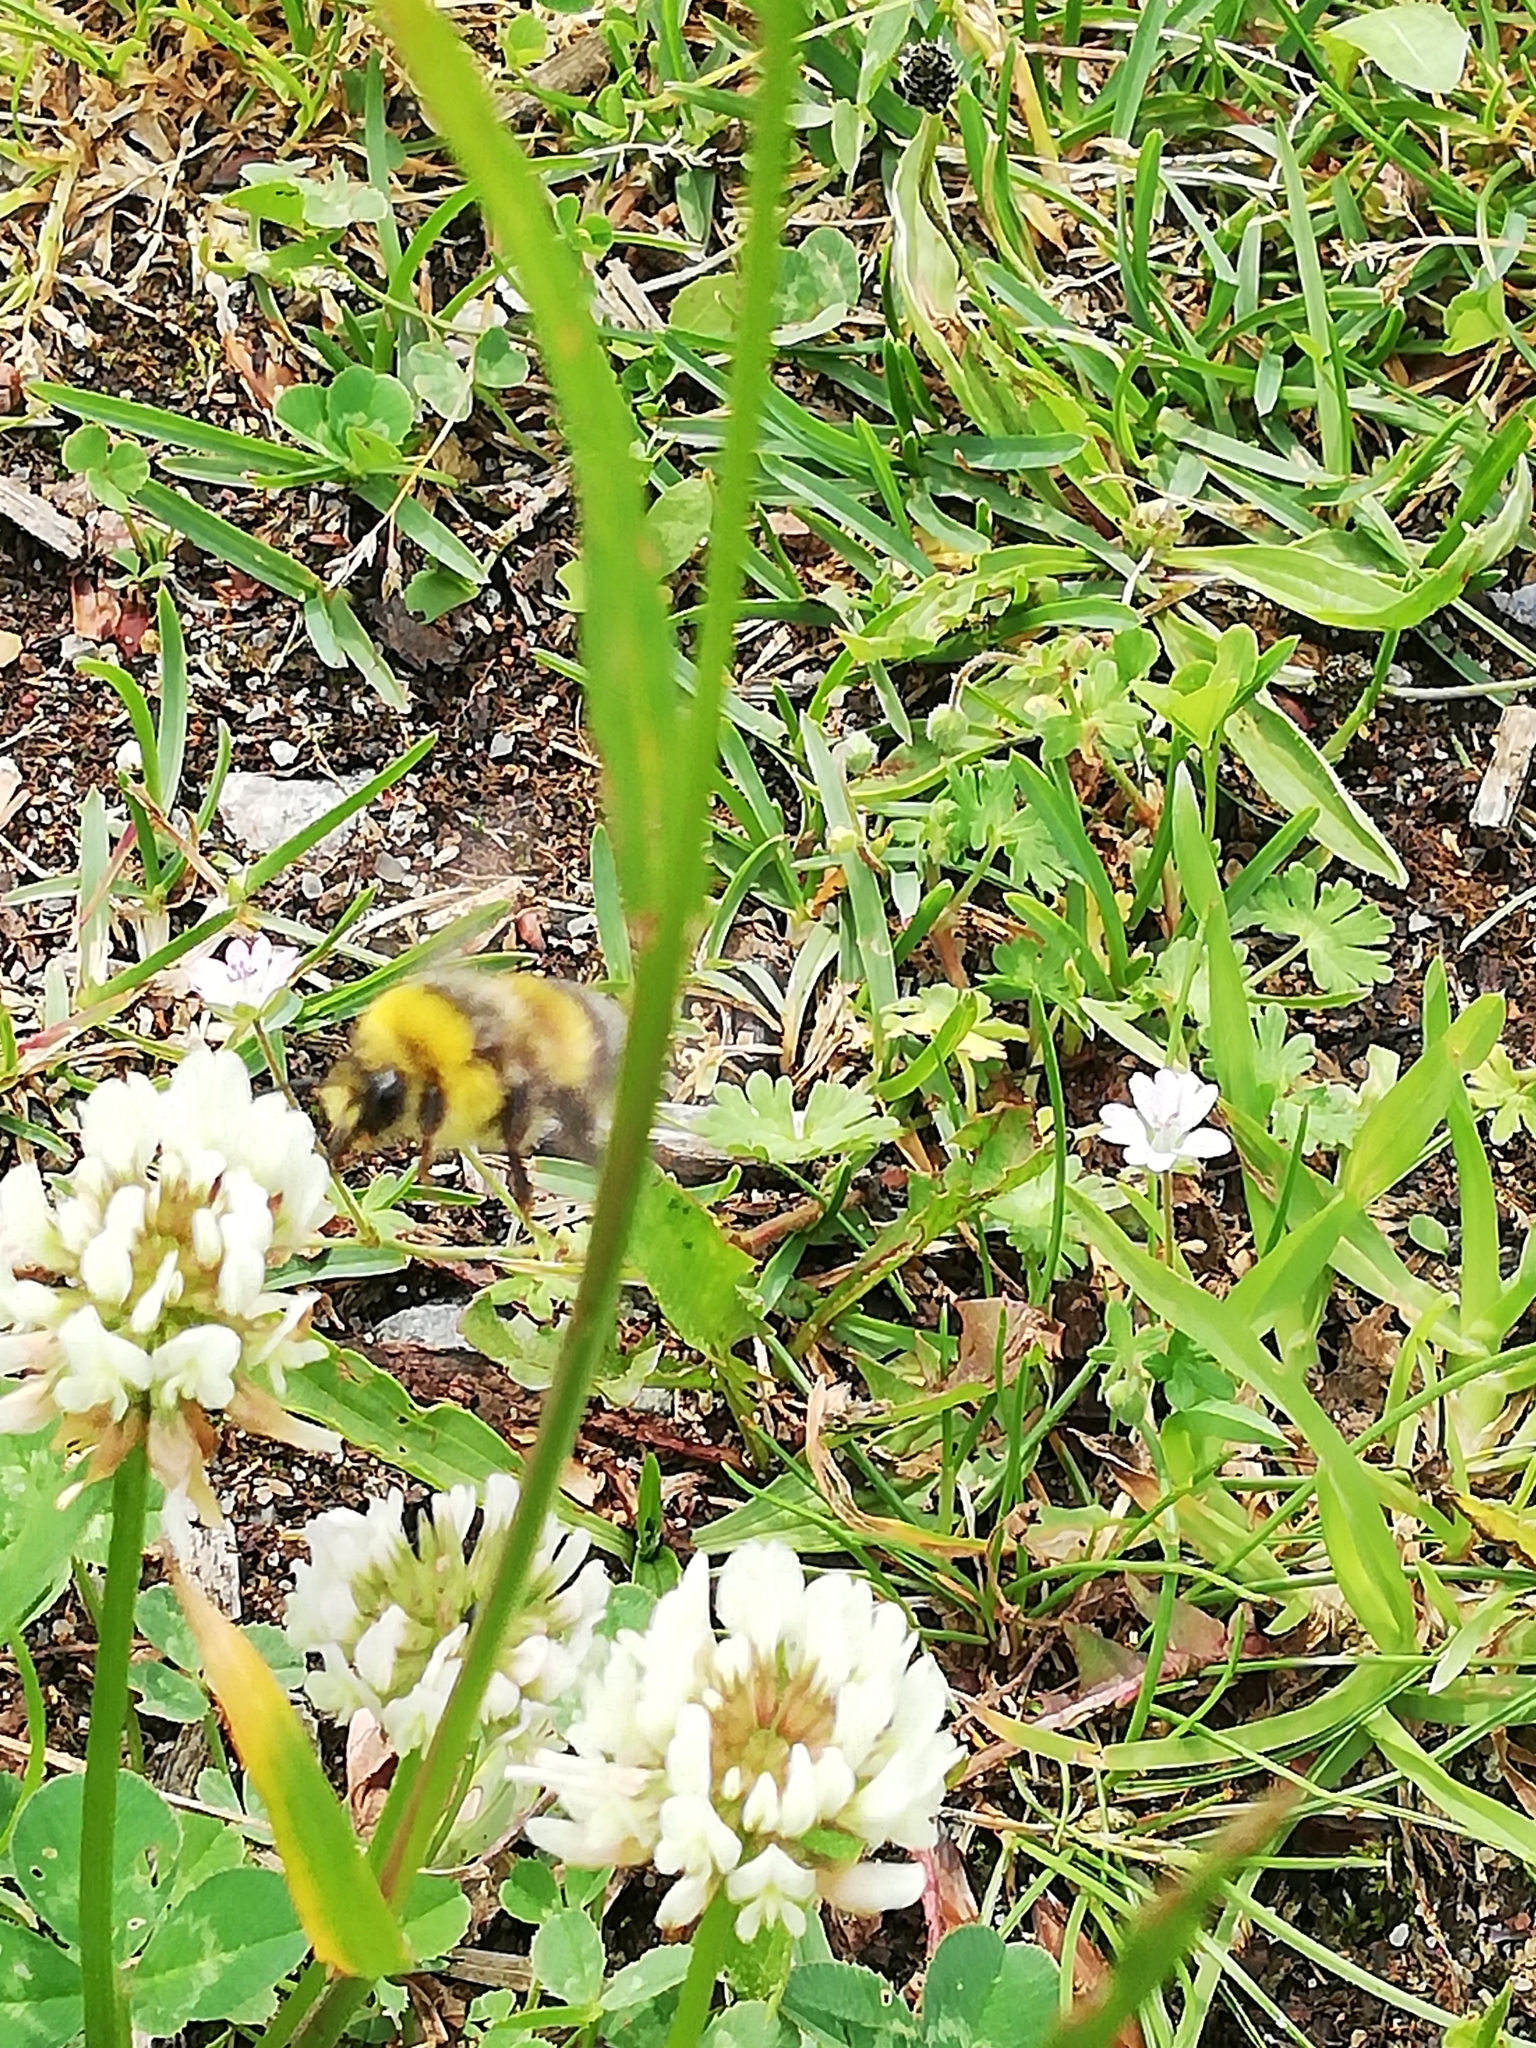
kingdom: Animalia
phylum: Arthropoda
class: Insecta
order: Hymenoptera
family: Apidae
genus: Bombus
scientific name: Bombus lucorum
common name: White-tailed bumblebee
